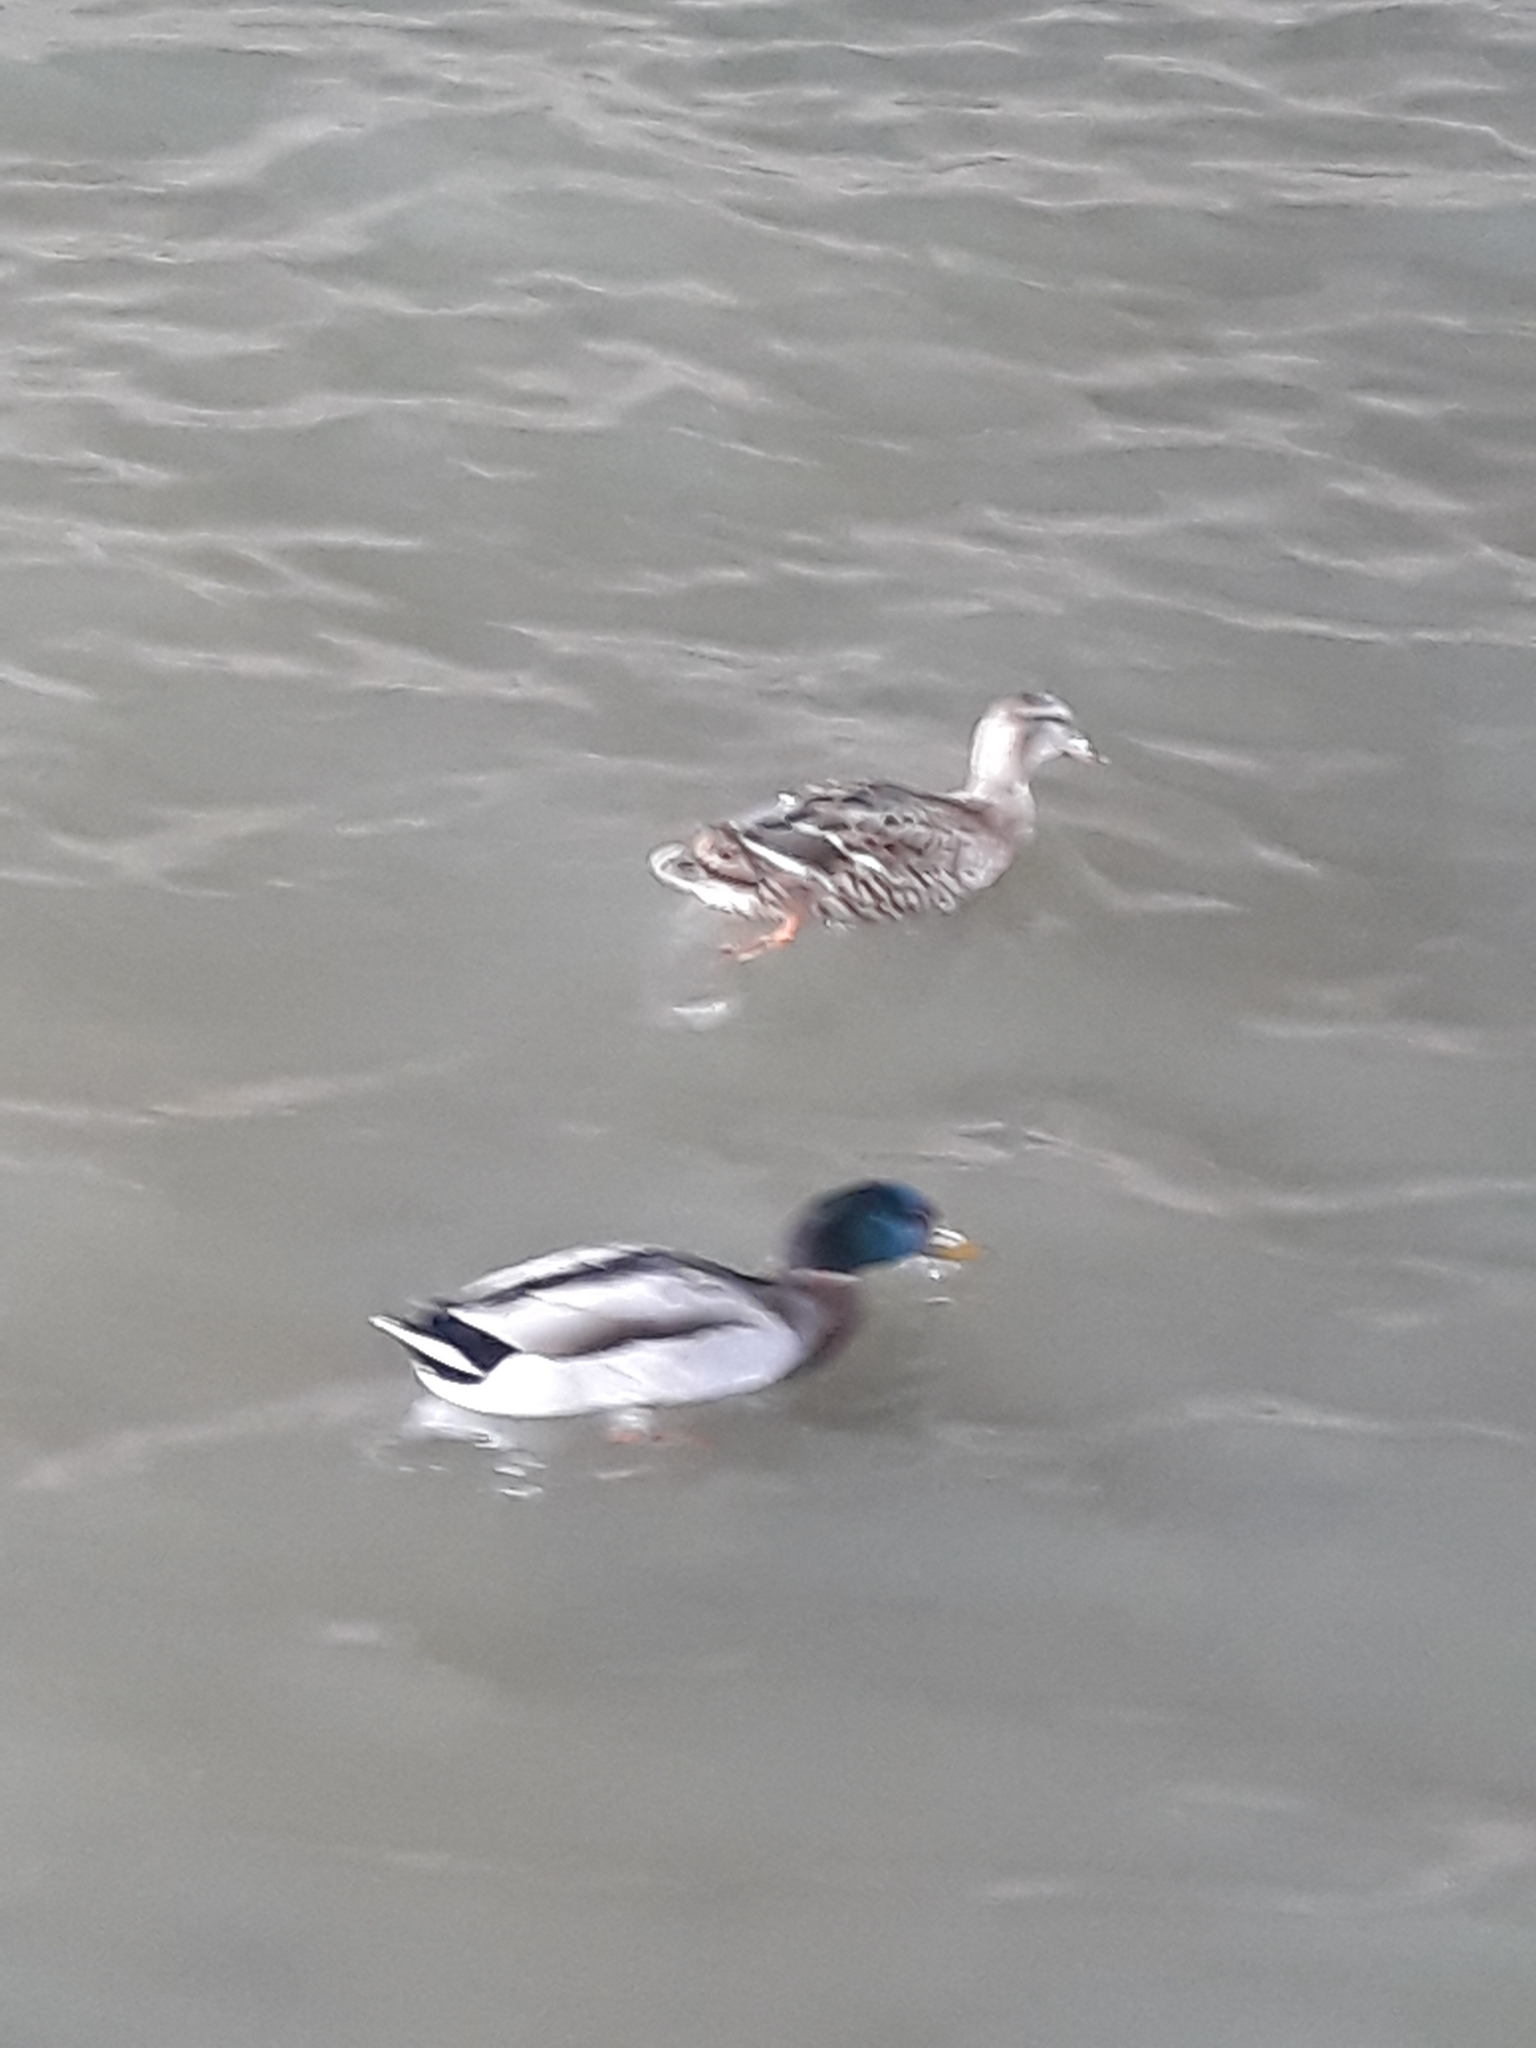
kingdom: Animalia
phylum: Chordata
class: Aves
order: Anseriformes
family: Anatidae
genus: Anas
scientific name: Anas platyrhynchos
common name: Mallard
